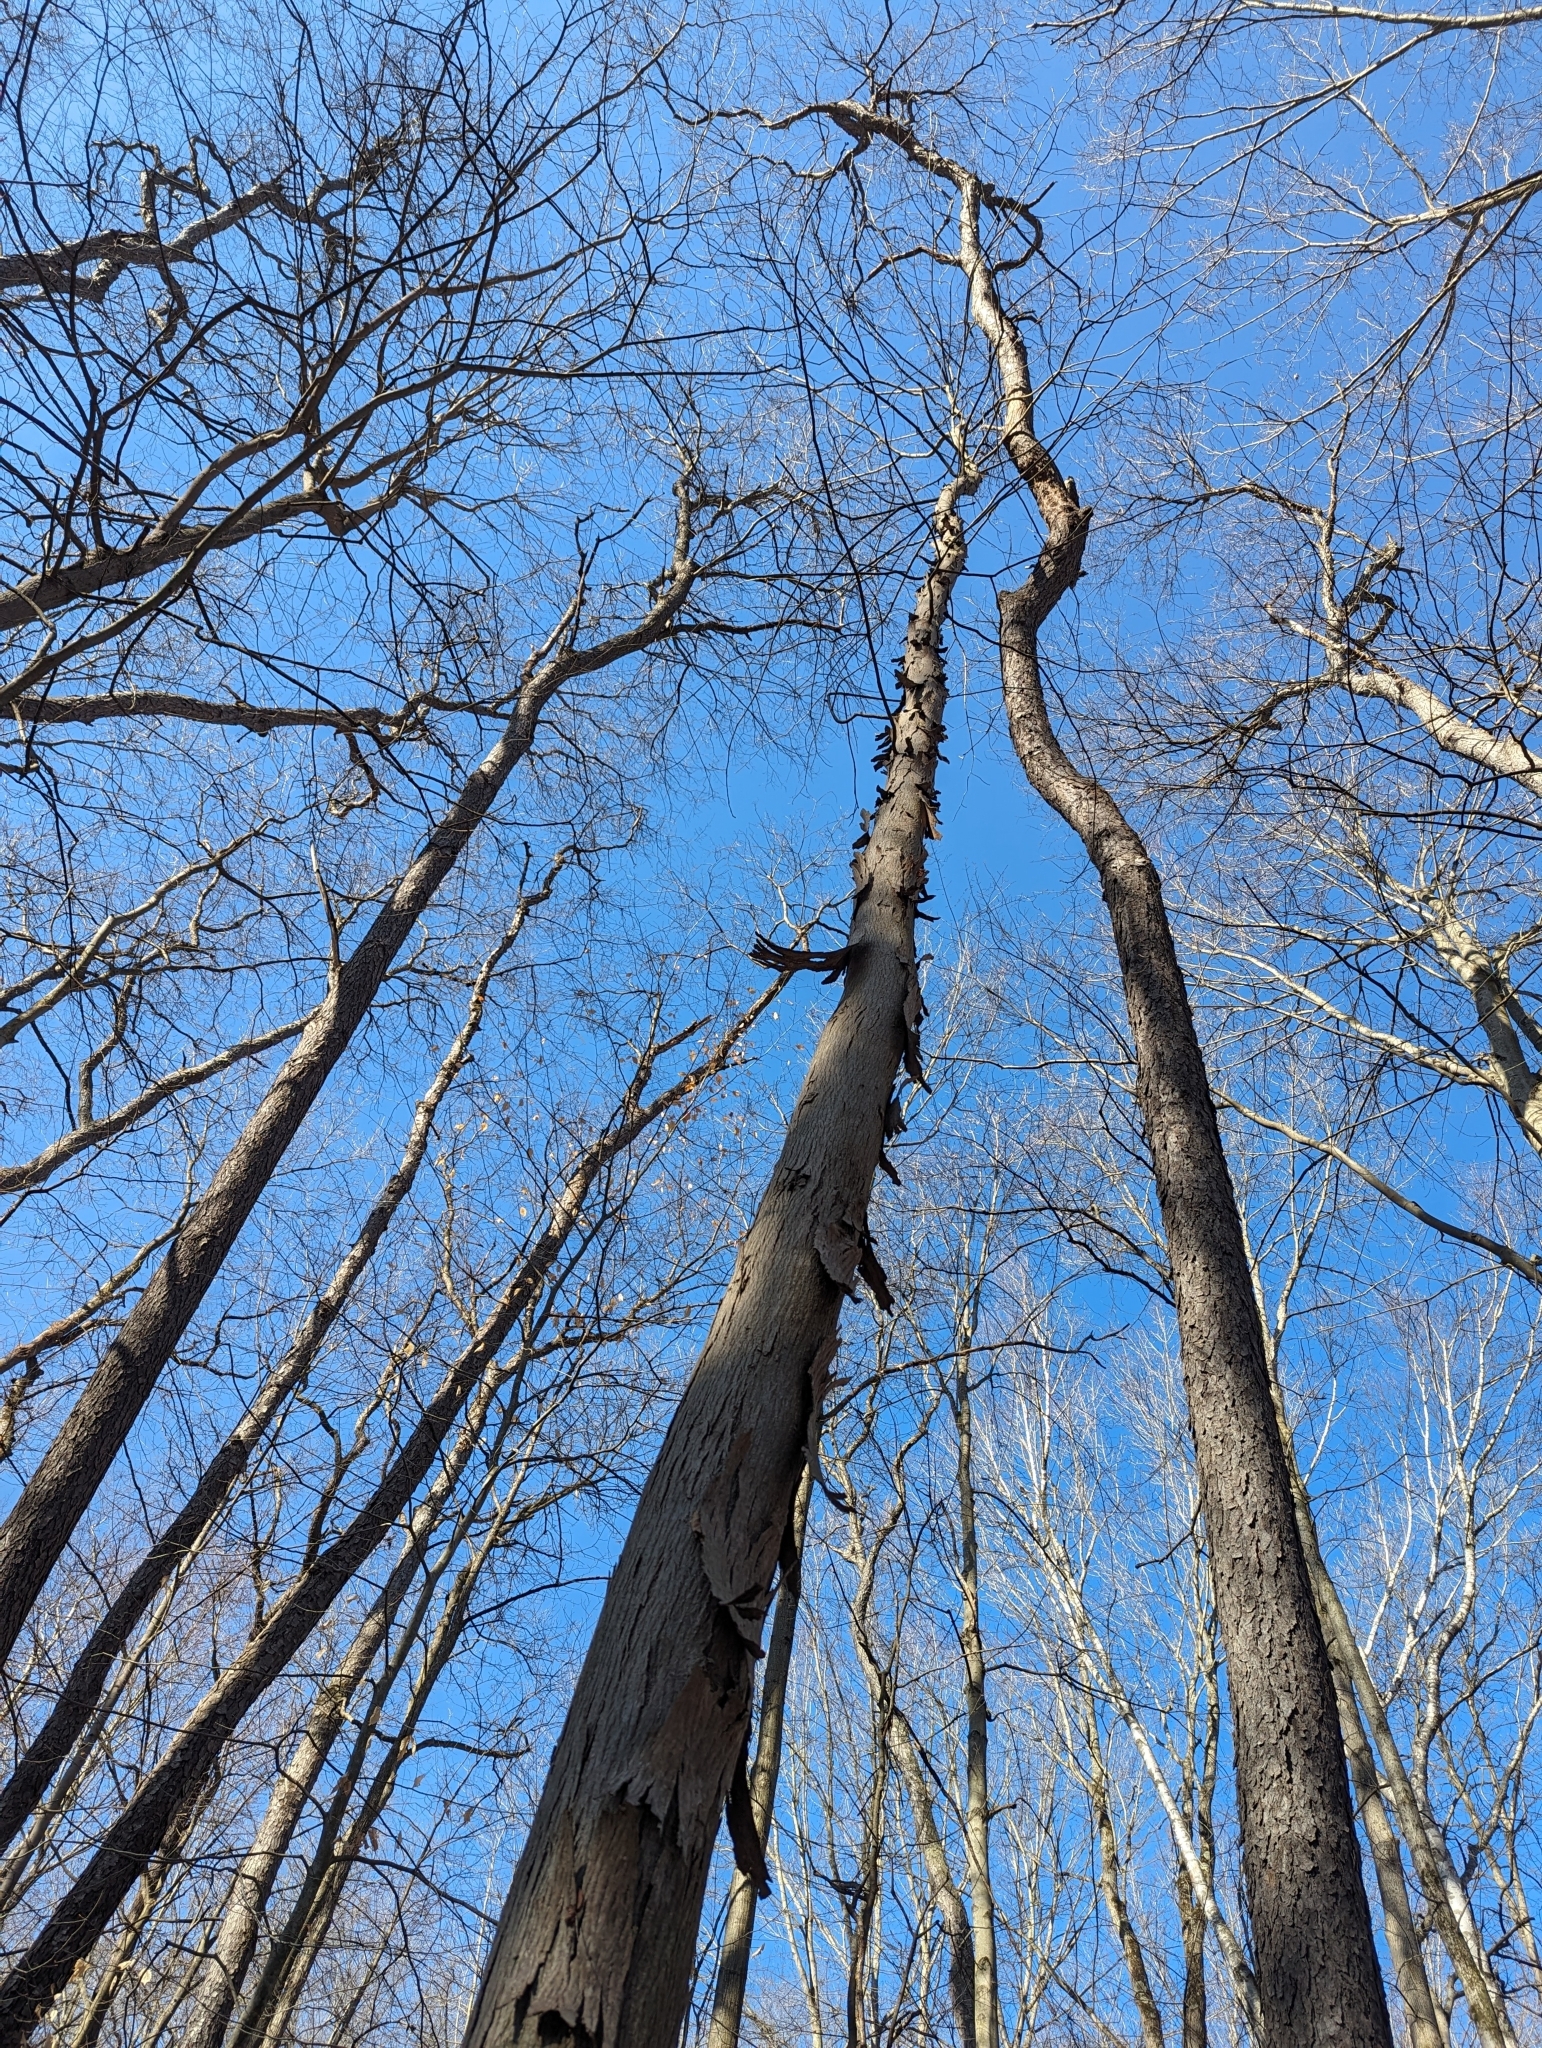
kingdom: Plantae
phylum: Tracheophyta
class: Magnoliopsida
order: Fagales
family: Juglandaceae
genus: Carya
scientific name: Carya ovata
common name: Shagbark hickory
